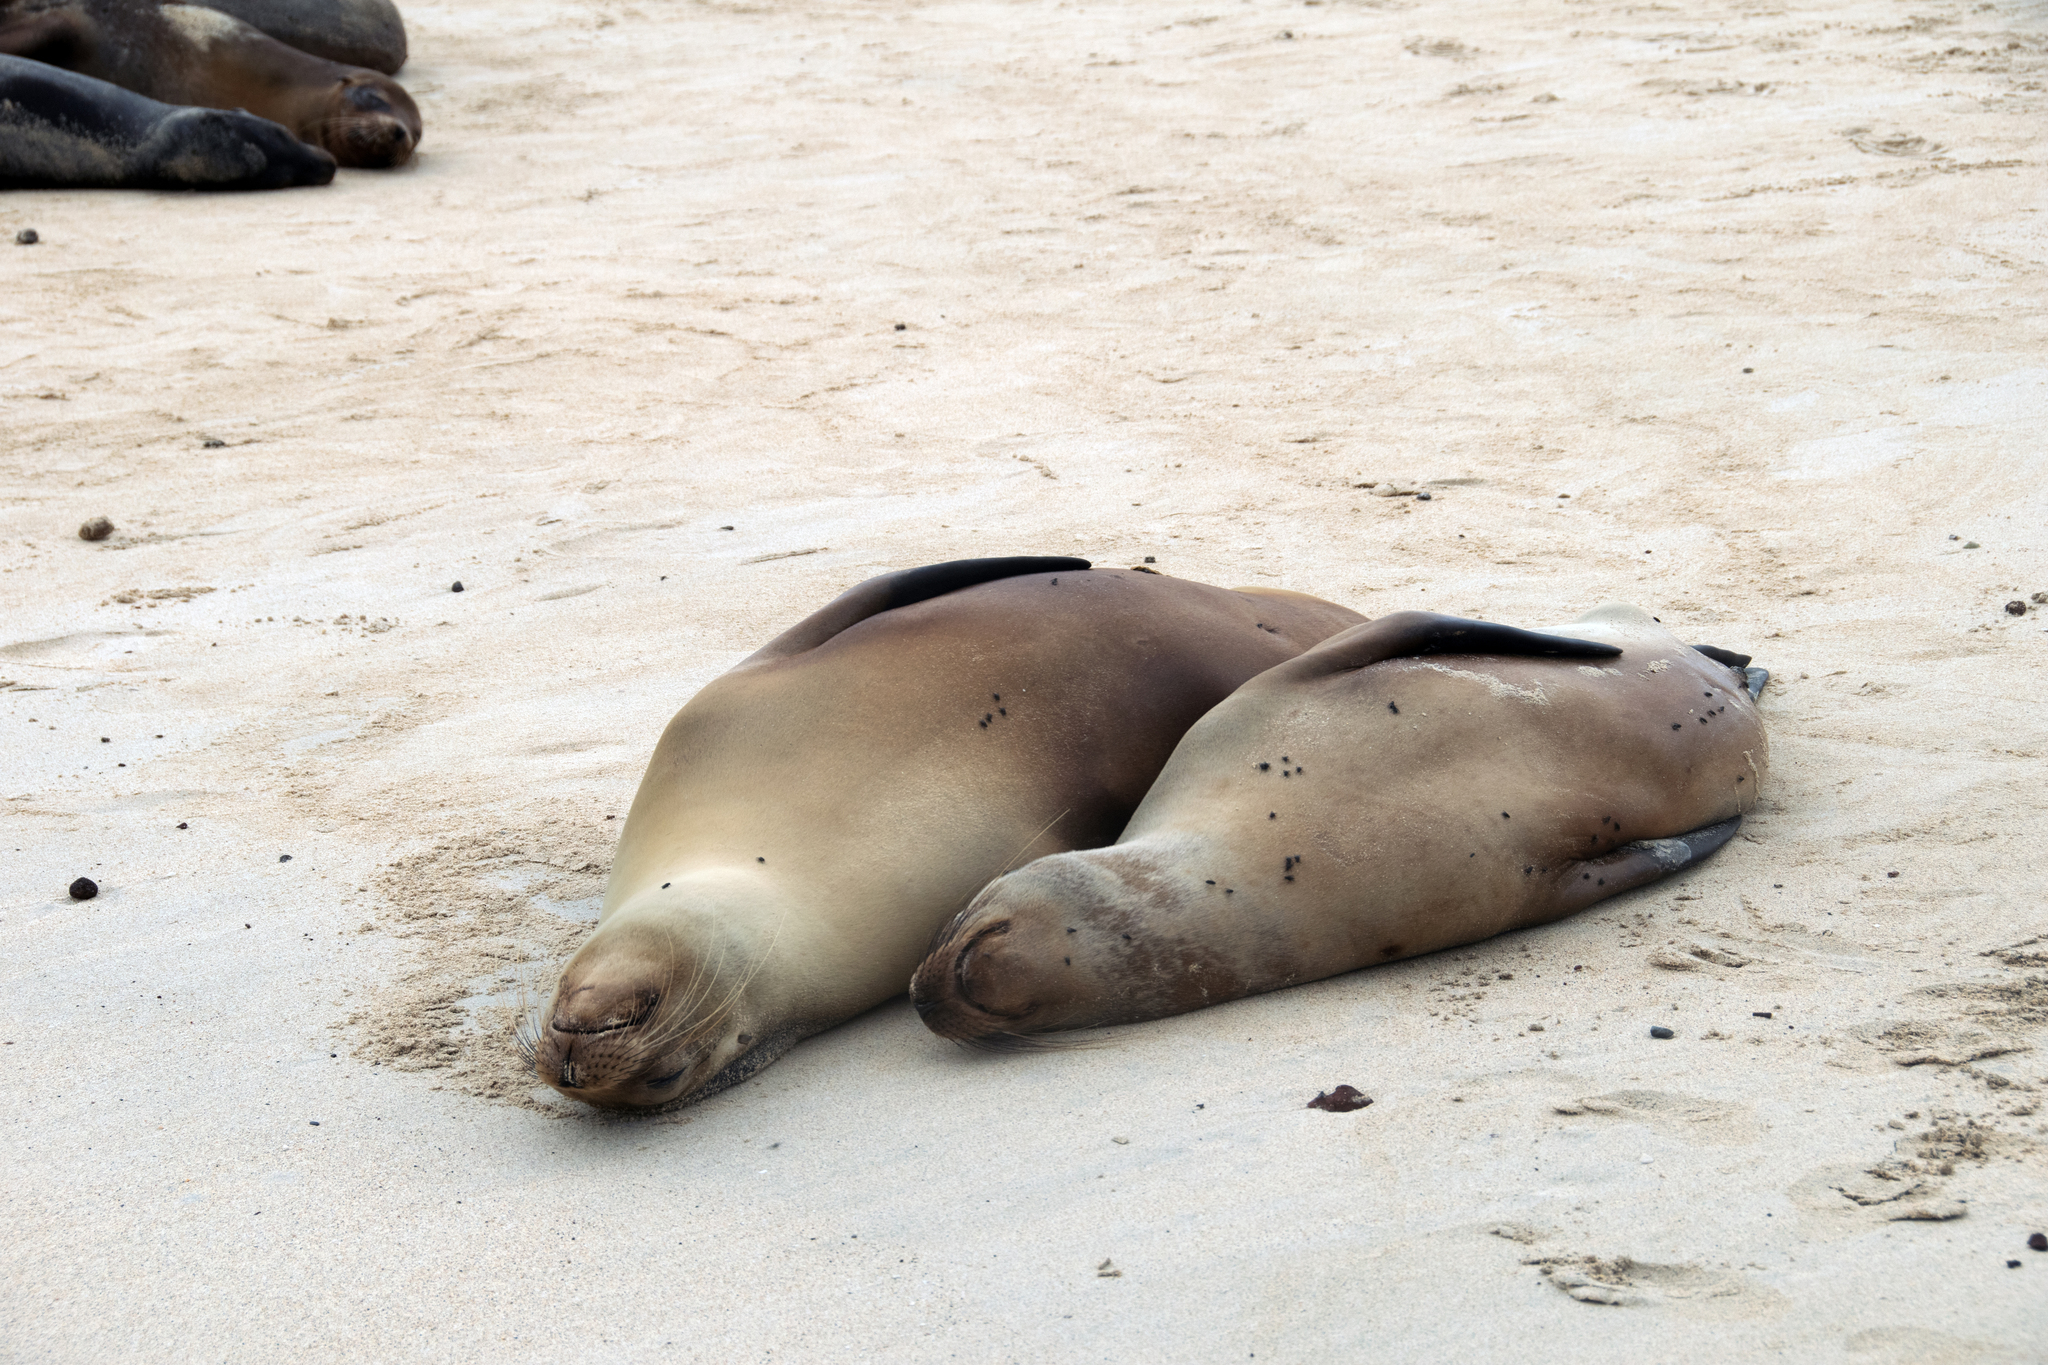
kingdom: Animalia
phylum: Chordata
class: Mammalia
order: Carnivora
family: Otariidae
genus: Zalophus
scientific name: Zalophus wollebaeki
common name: Galapagos sea lion
